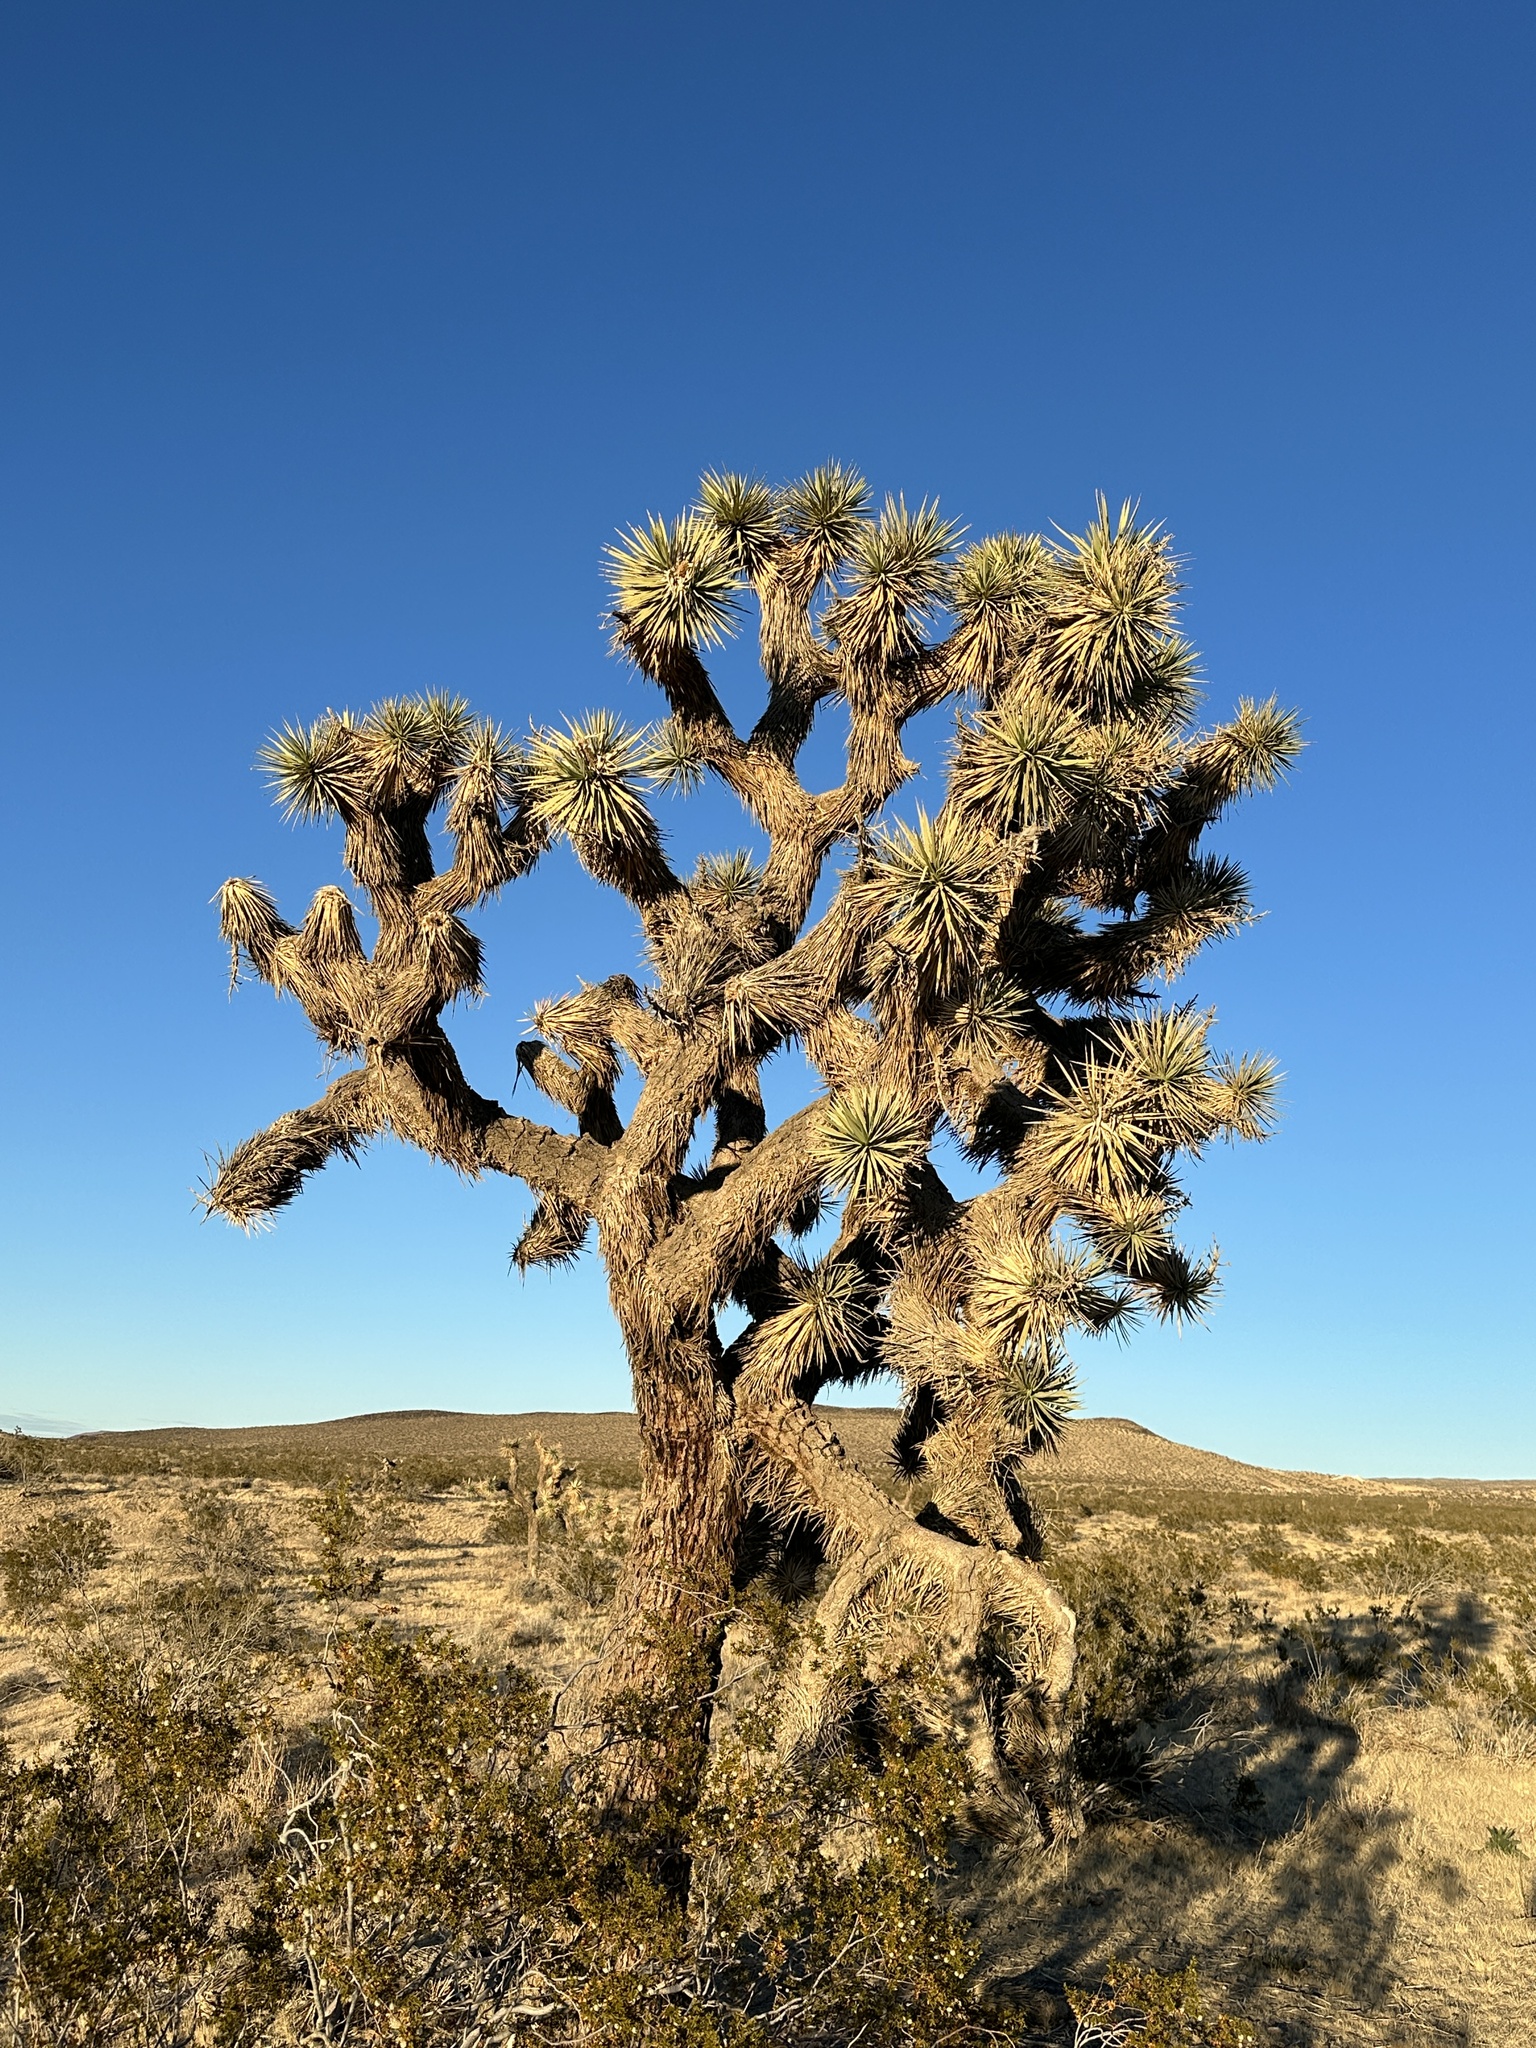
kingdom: Plantae
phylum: Tracheophyta
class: Liliopsida
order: Asparagales
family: Asparagaceae
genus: Yucca
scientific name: Yucca brevifolia
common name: Joshua tree
